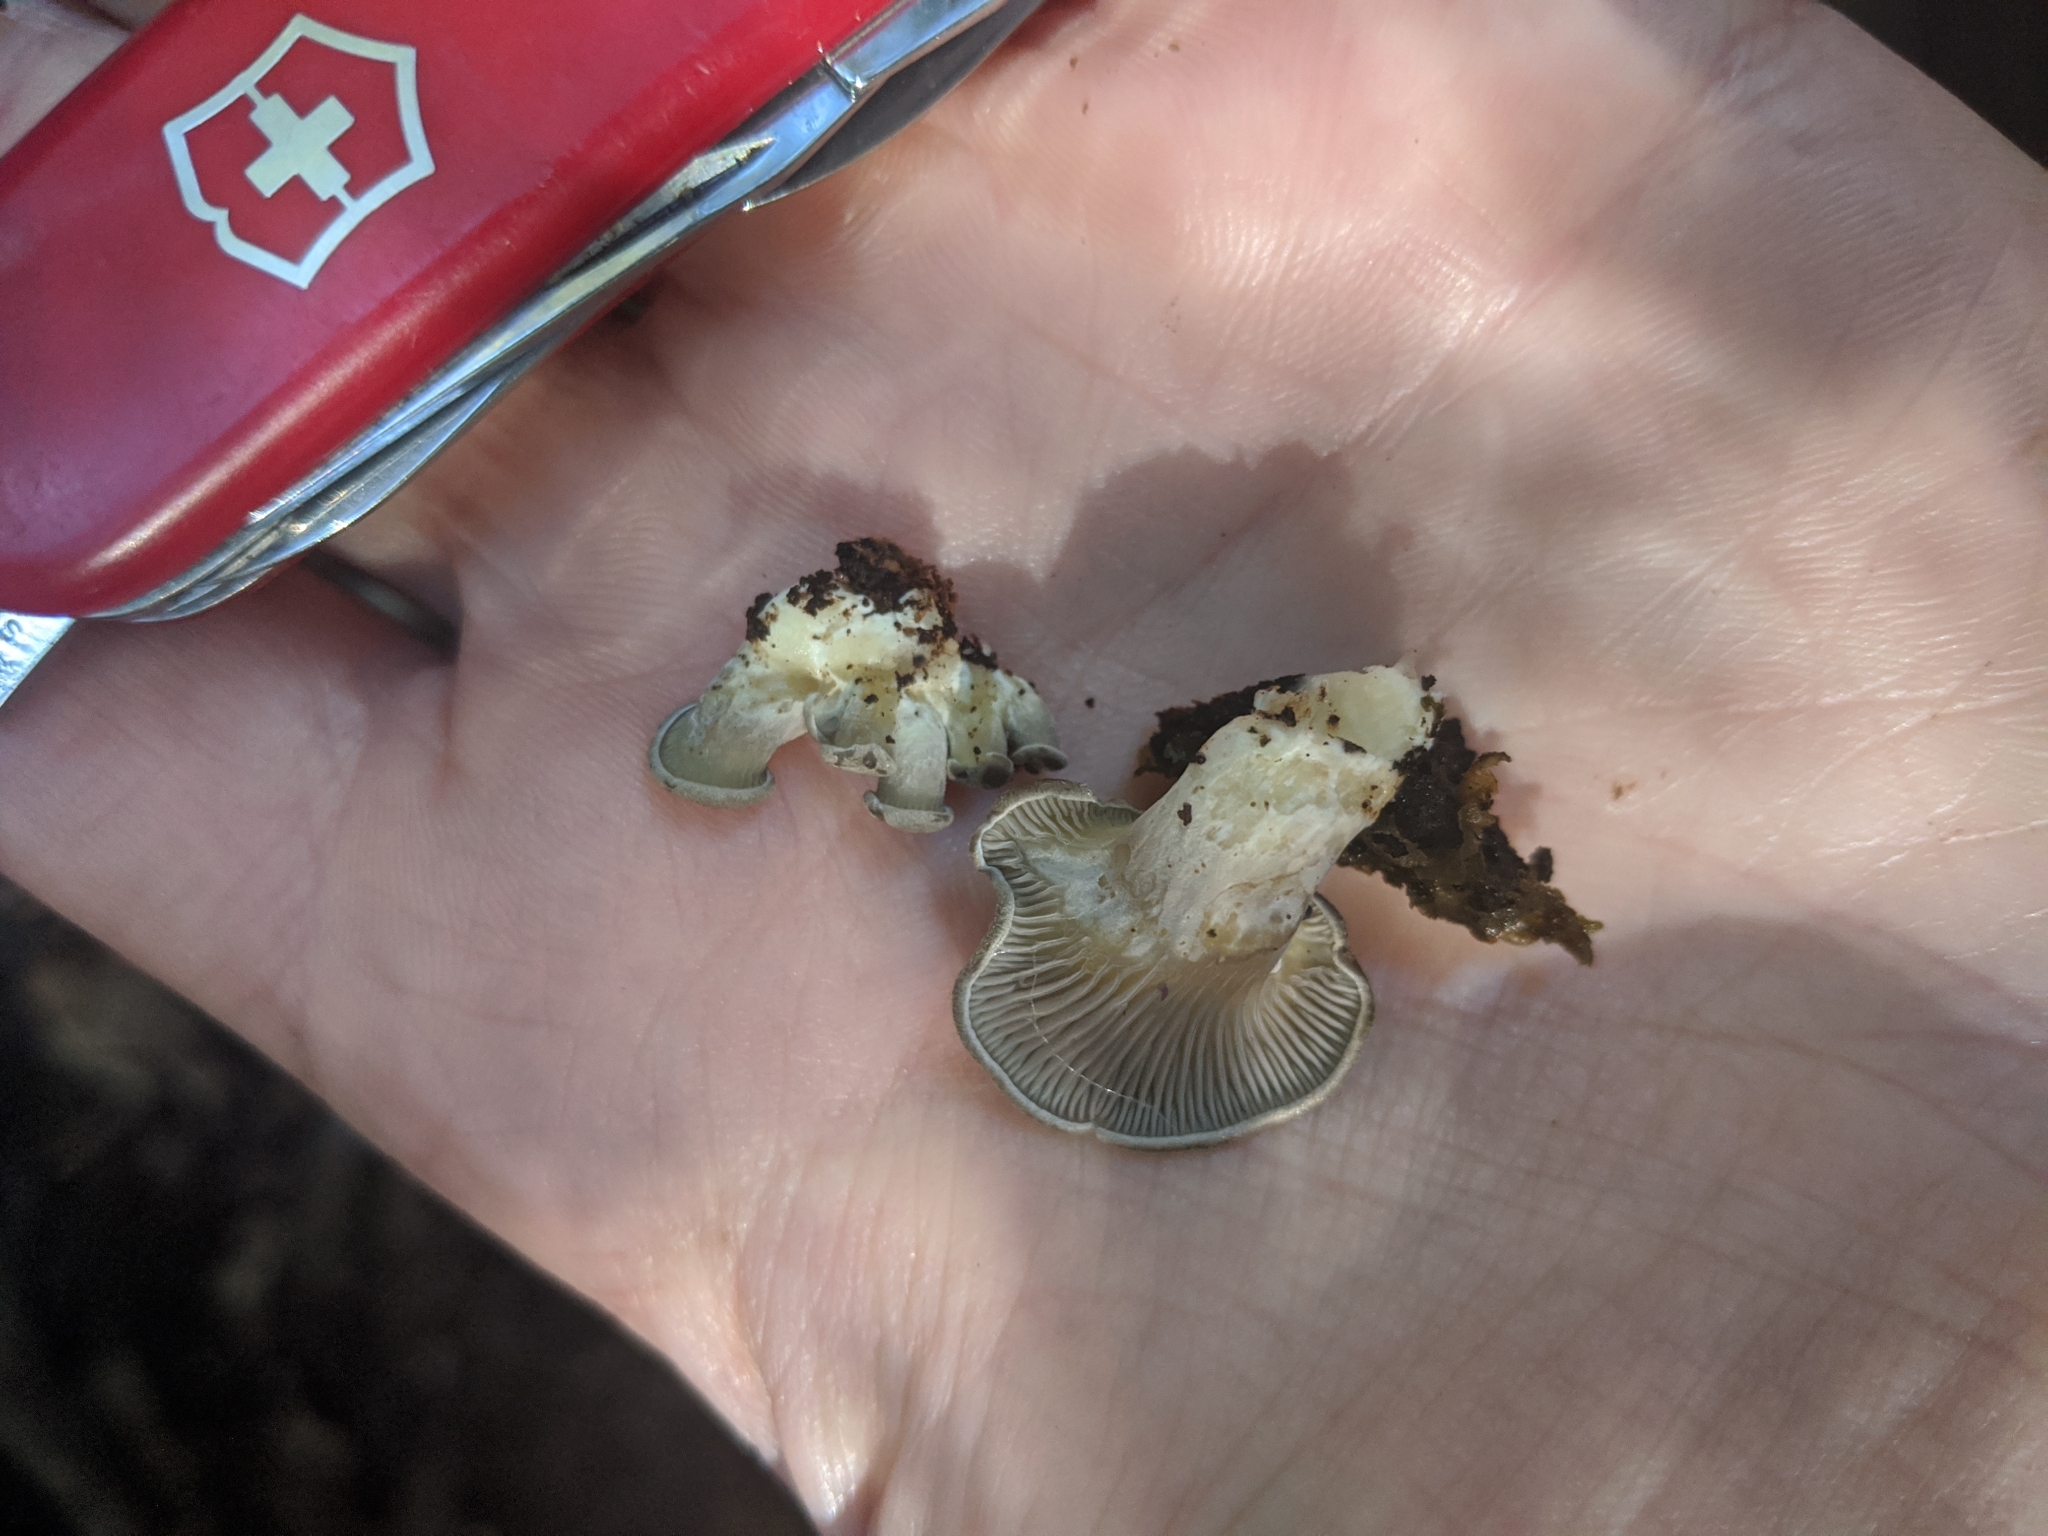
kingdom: Fungi
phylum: Basidiomycota
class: Agaricomycetes
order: Agaricales
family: Pleurotaceae
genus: Pleurotus
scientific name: Pleurotus purpureo-olivaceus
